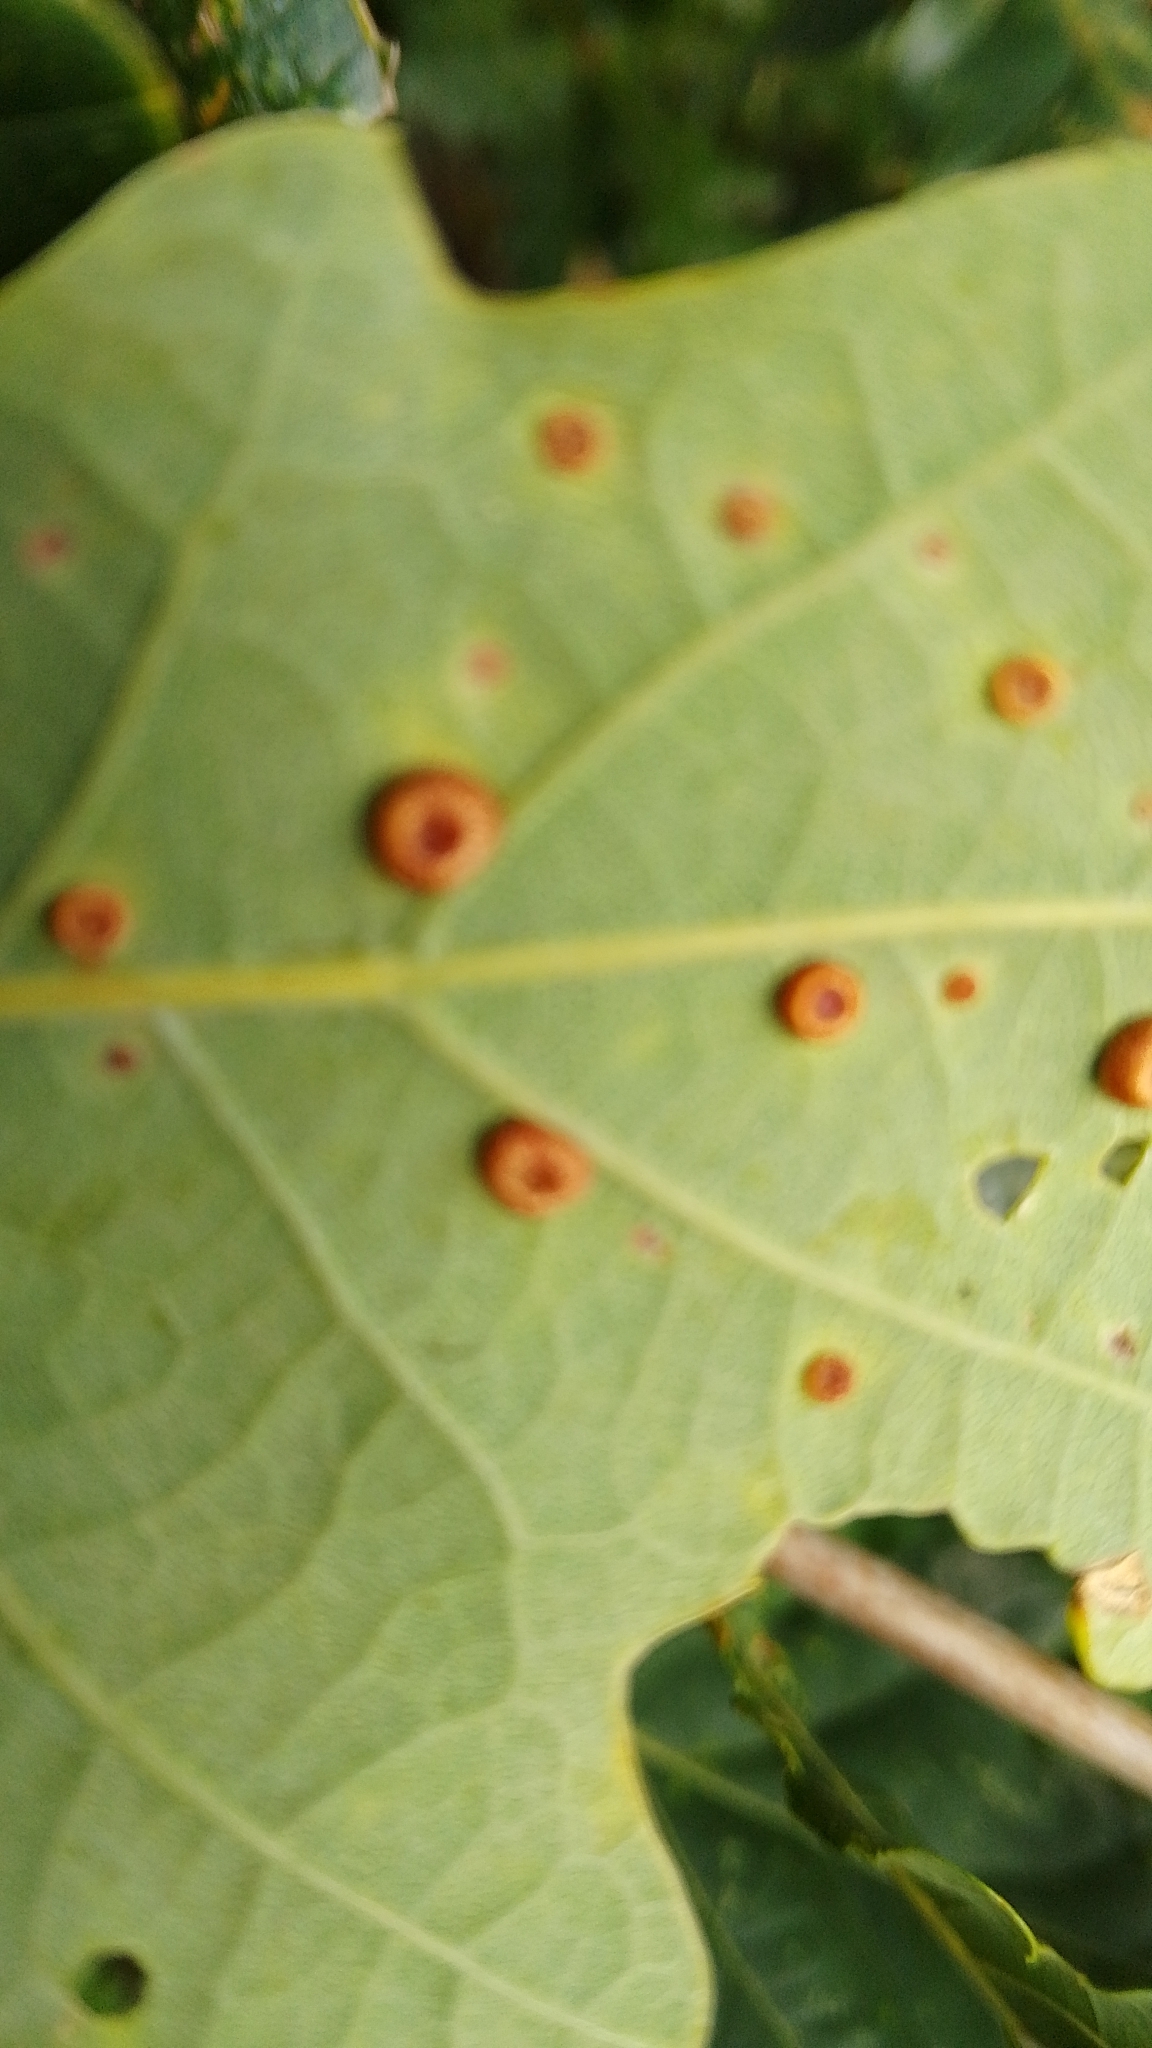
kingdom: Animalia
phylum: Arthropoda
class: Insecta
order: Hymenoptera
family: Cynipidae
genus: Neuroterus
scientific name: Neuroterus numismalis
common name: Silk-button spangle gall
